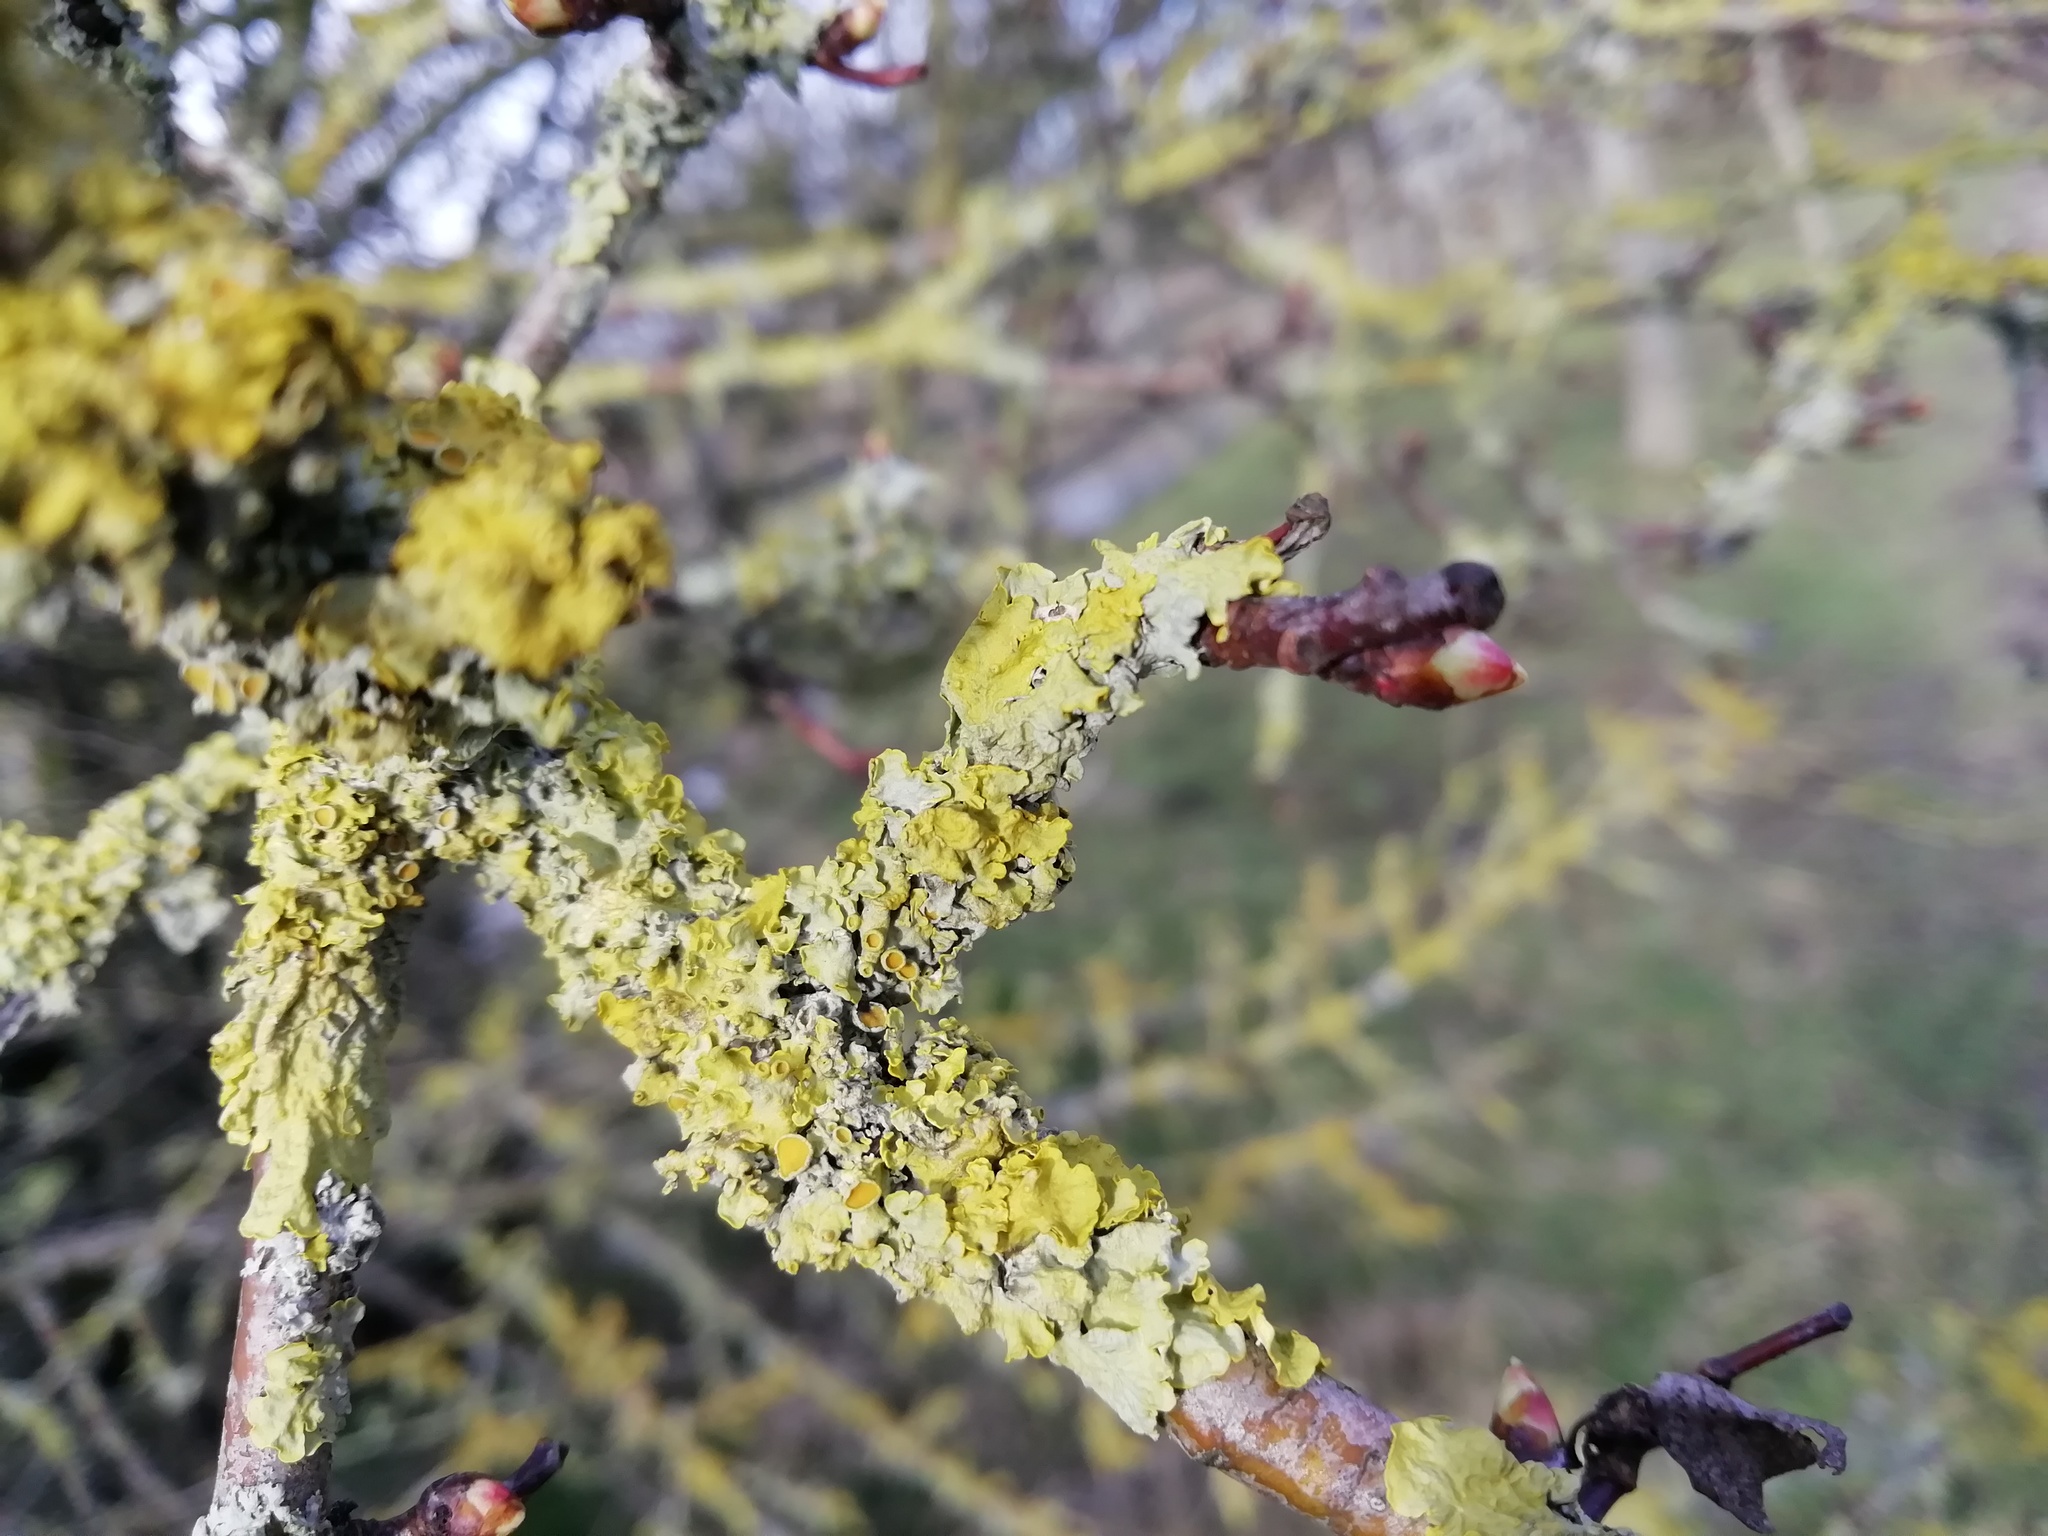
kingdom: Fungi
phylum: Ascomycota
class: Lecanoromycetes
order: Teloschistales
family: Teloschistaceae
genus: Xanthoria
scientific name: Xanthoria parietina
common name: Common orange lichen
